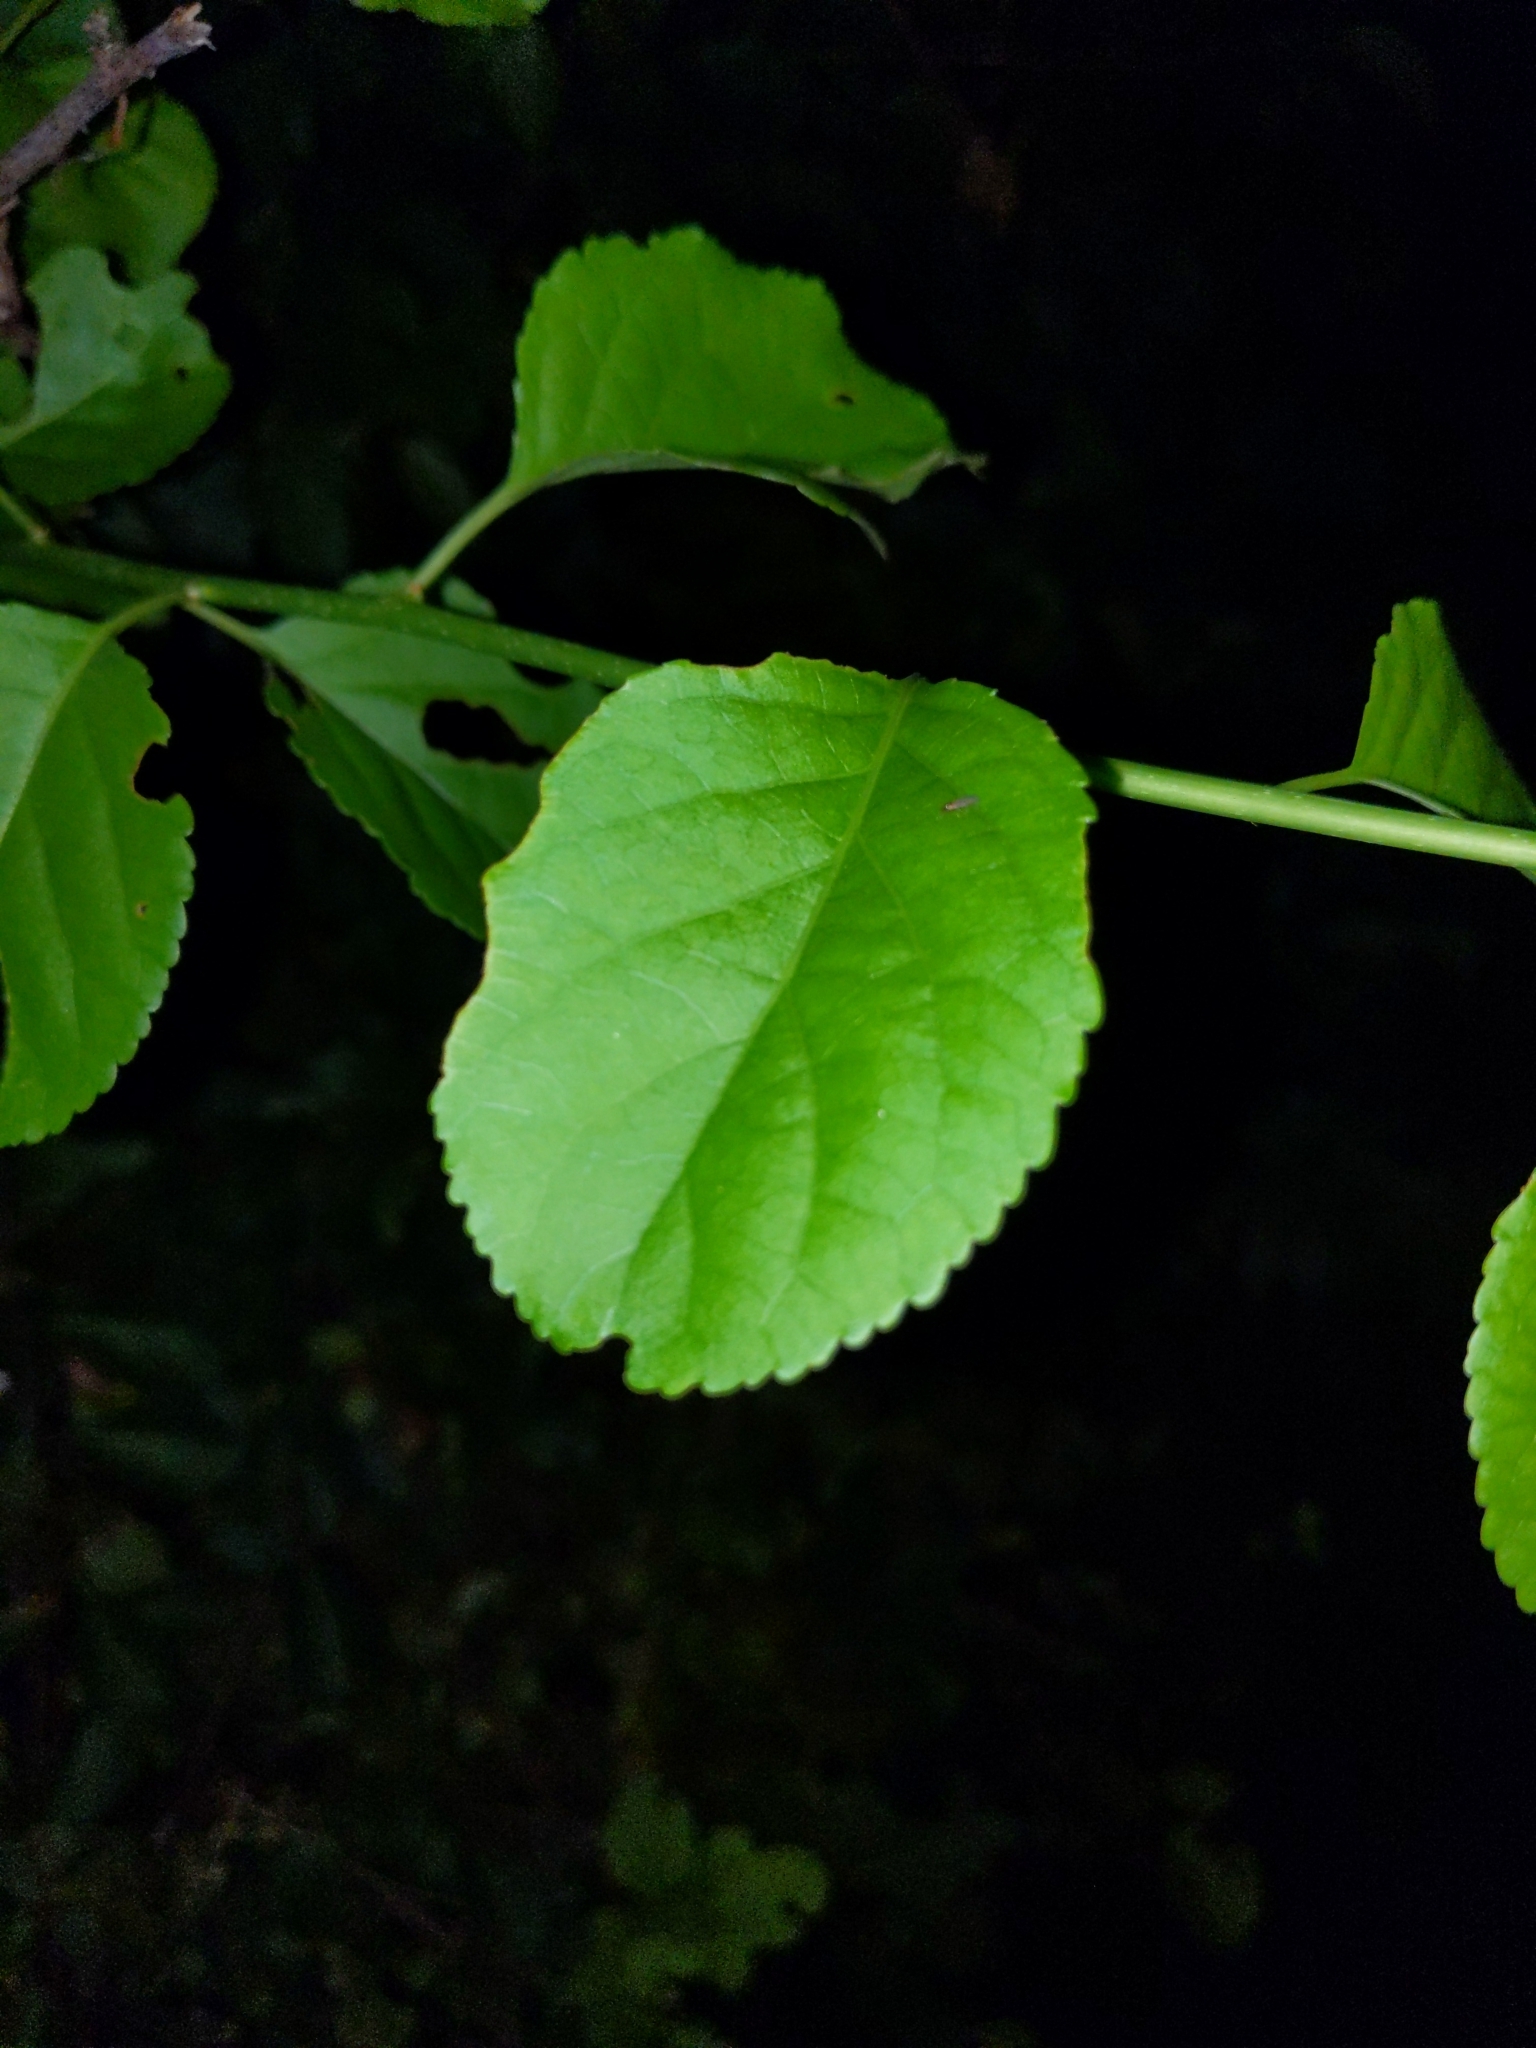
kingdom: Plantae
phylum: Tracheophyta
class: Magnoliopsida
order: Celastrales
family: Celastraceae
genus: Celastrus
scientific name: Celastrus orbiculatus
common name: Oriental bittersweet
